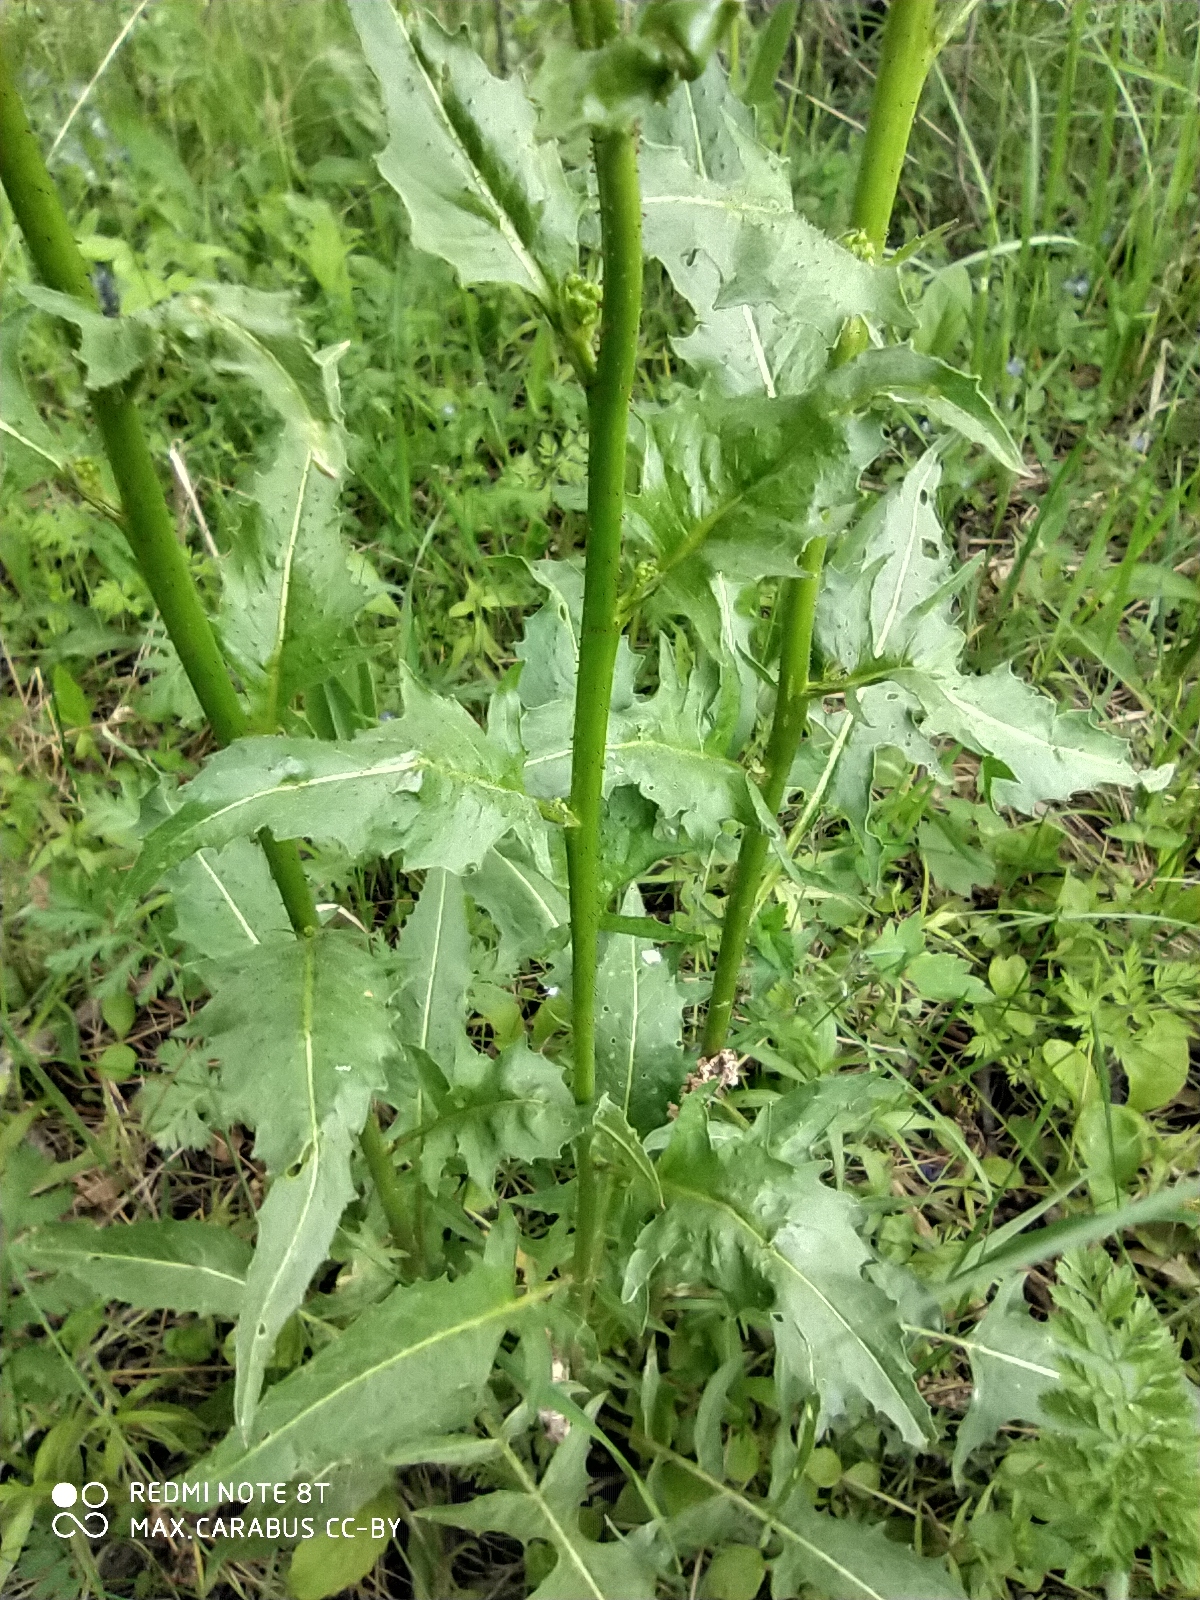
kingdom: Plantae
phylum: Tracheophyta
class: Magnoliopsida
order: Brassicales
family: Brassicaceae
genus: Bunias
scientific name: Bunias orientalis
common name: Warty-cabbage
